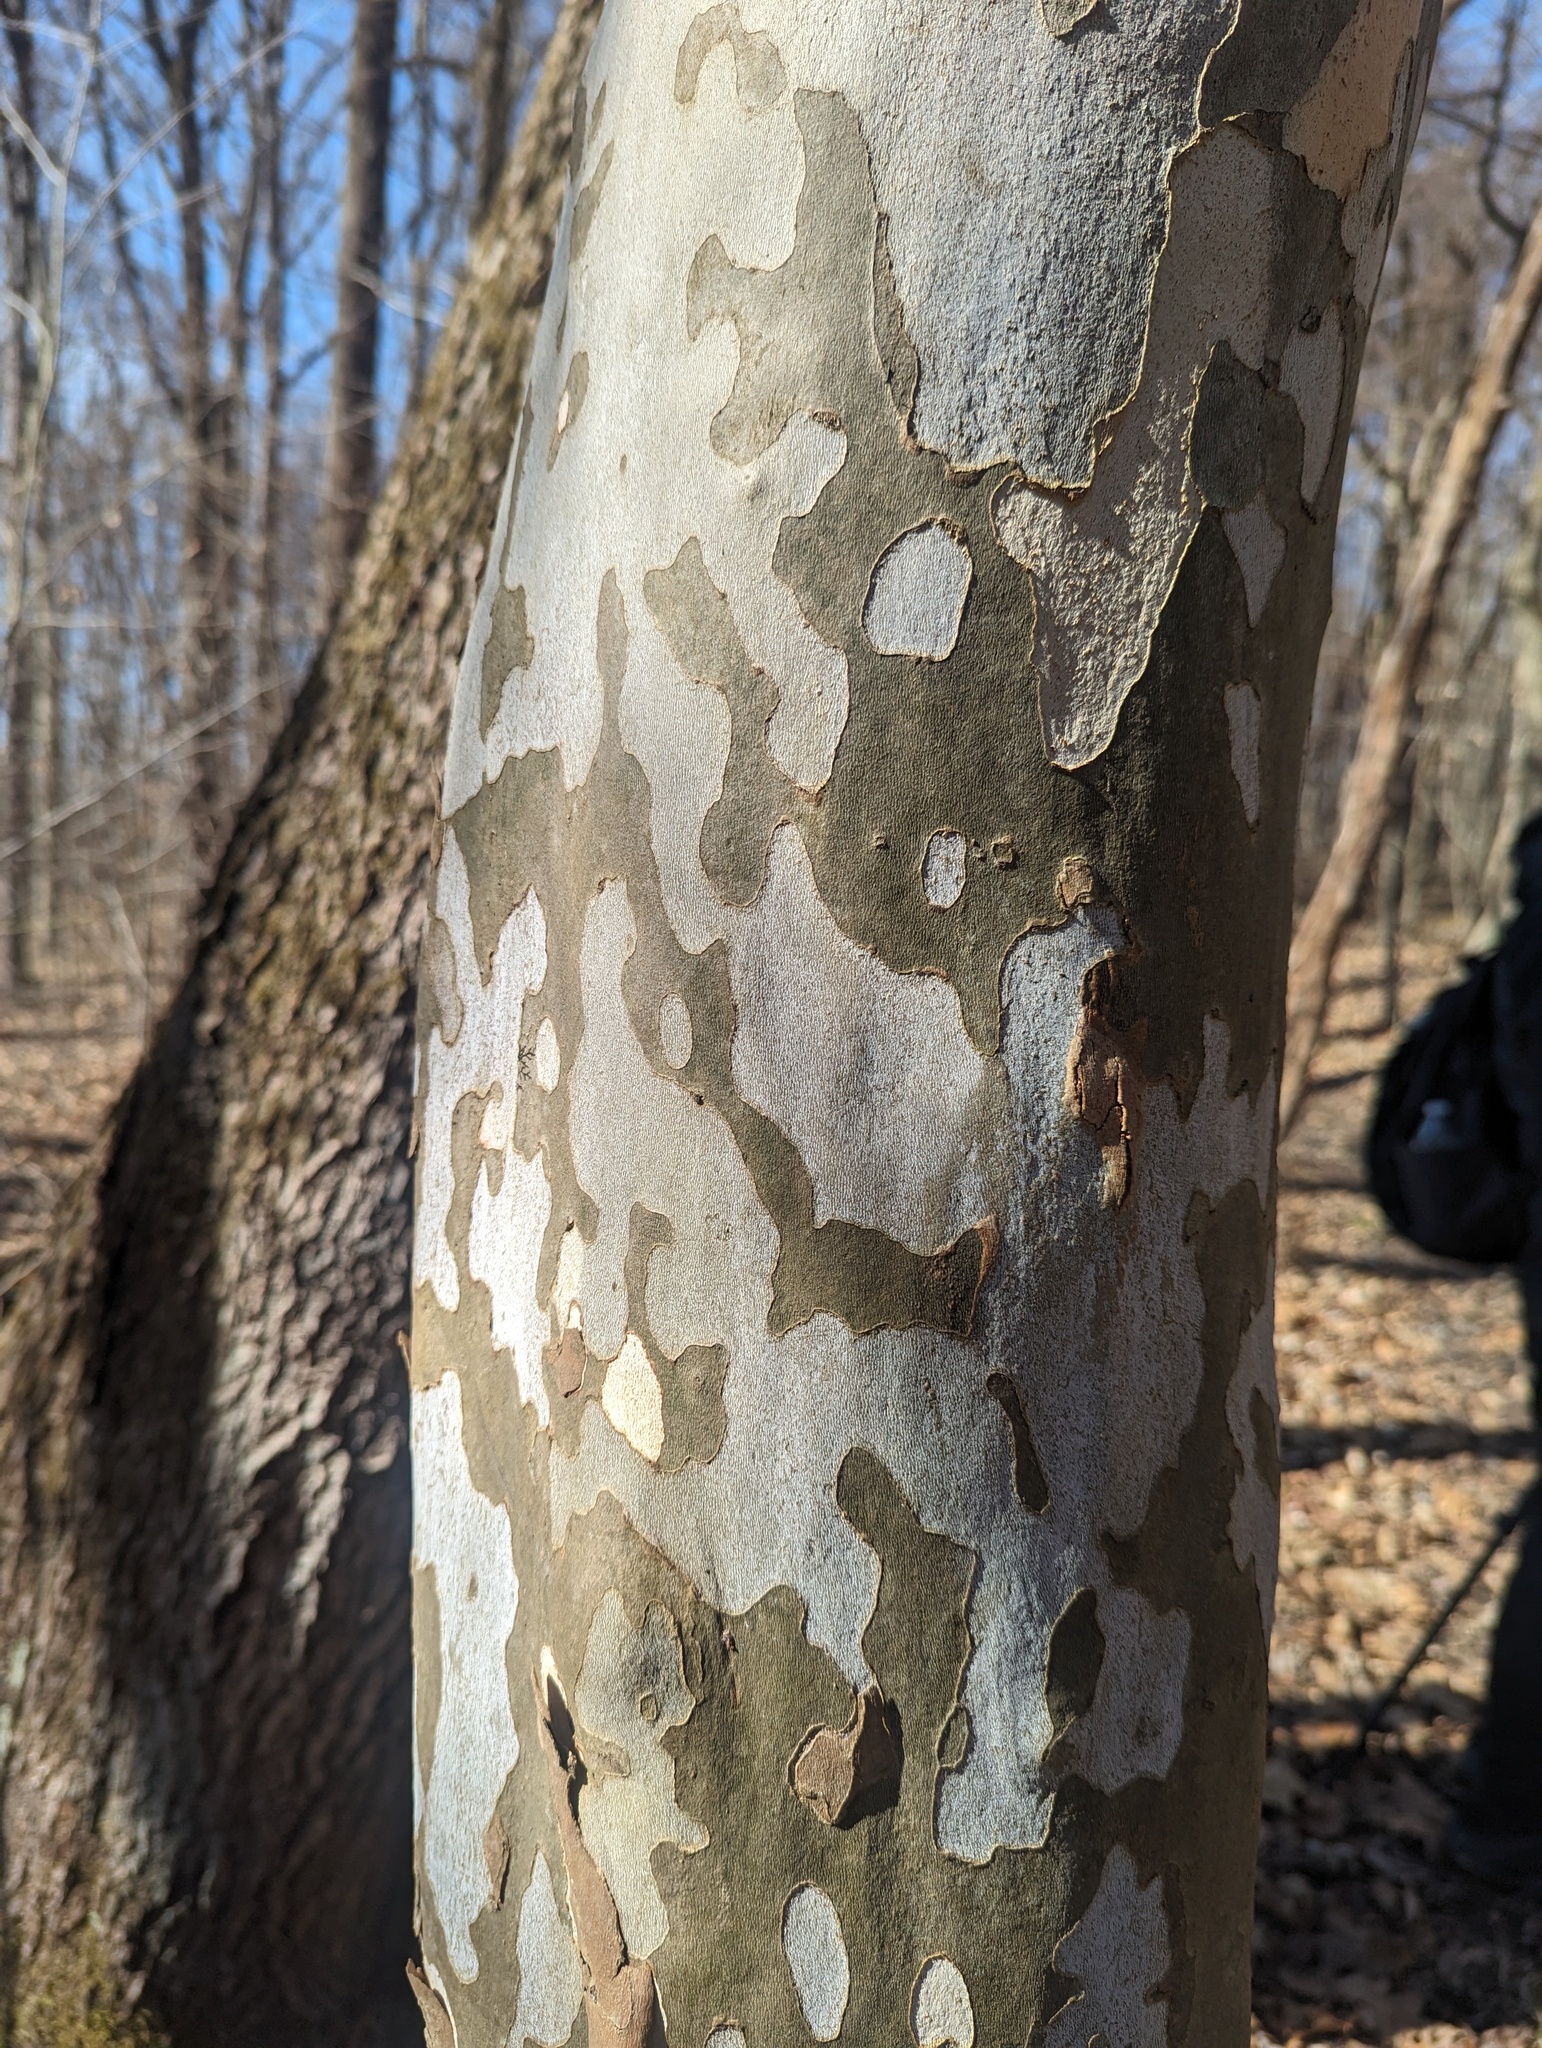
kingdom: Plantae
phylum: Tracheophyta
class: Magnoliopsida
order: Proteales
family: Platanaceae
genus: Platanus
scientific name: Platanus occidentalis
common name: American sycamore
